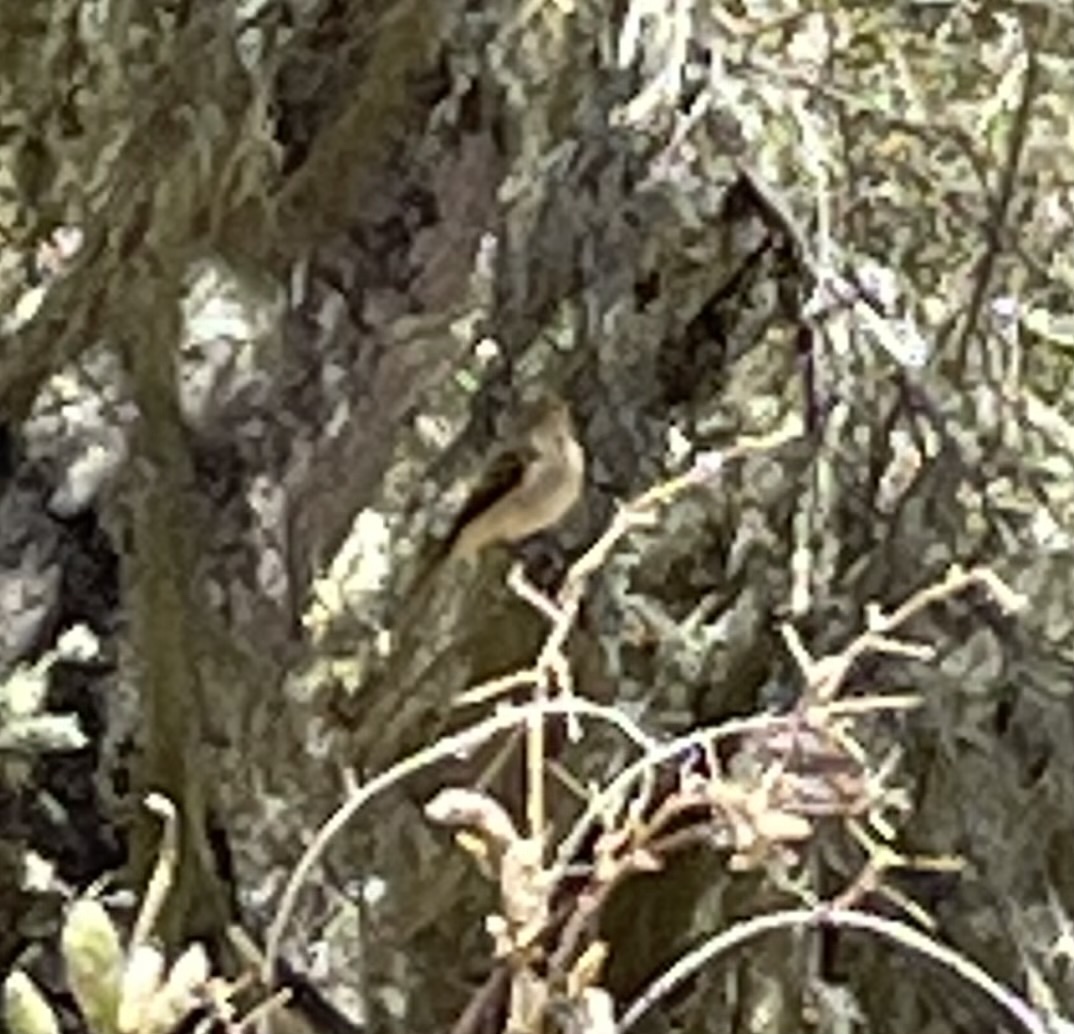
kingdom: Animalia
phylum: Chordata
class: Aves
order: Passeriformes
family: Tyrannidae
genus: Empidonax
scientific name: Empidonax difficilis
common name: Pacific-slope flycatcher
